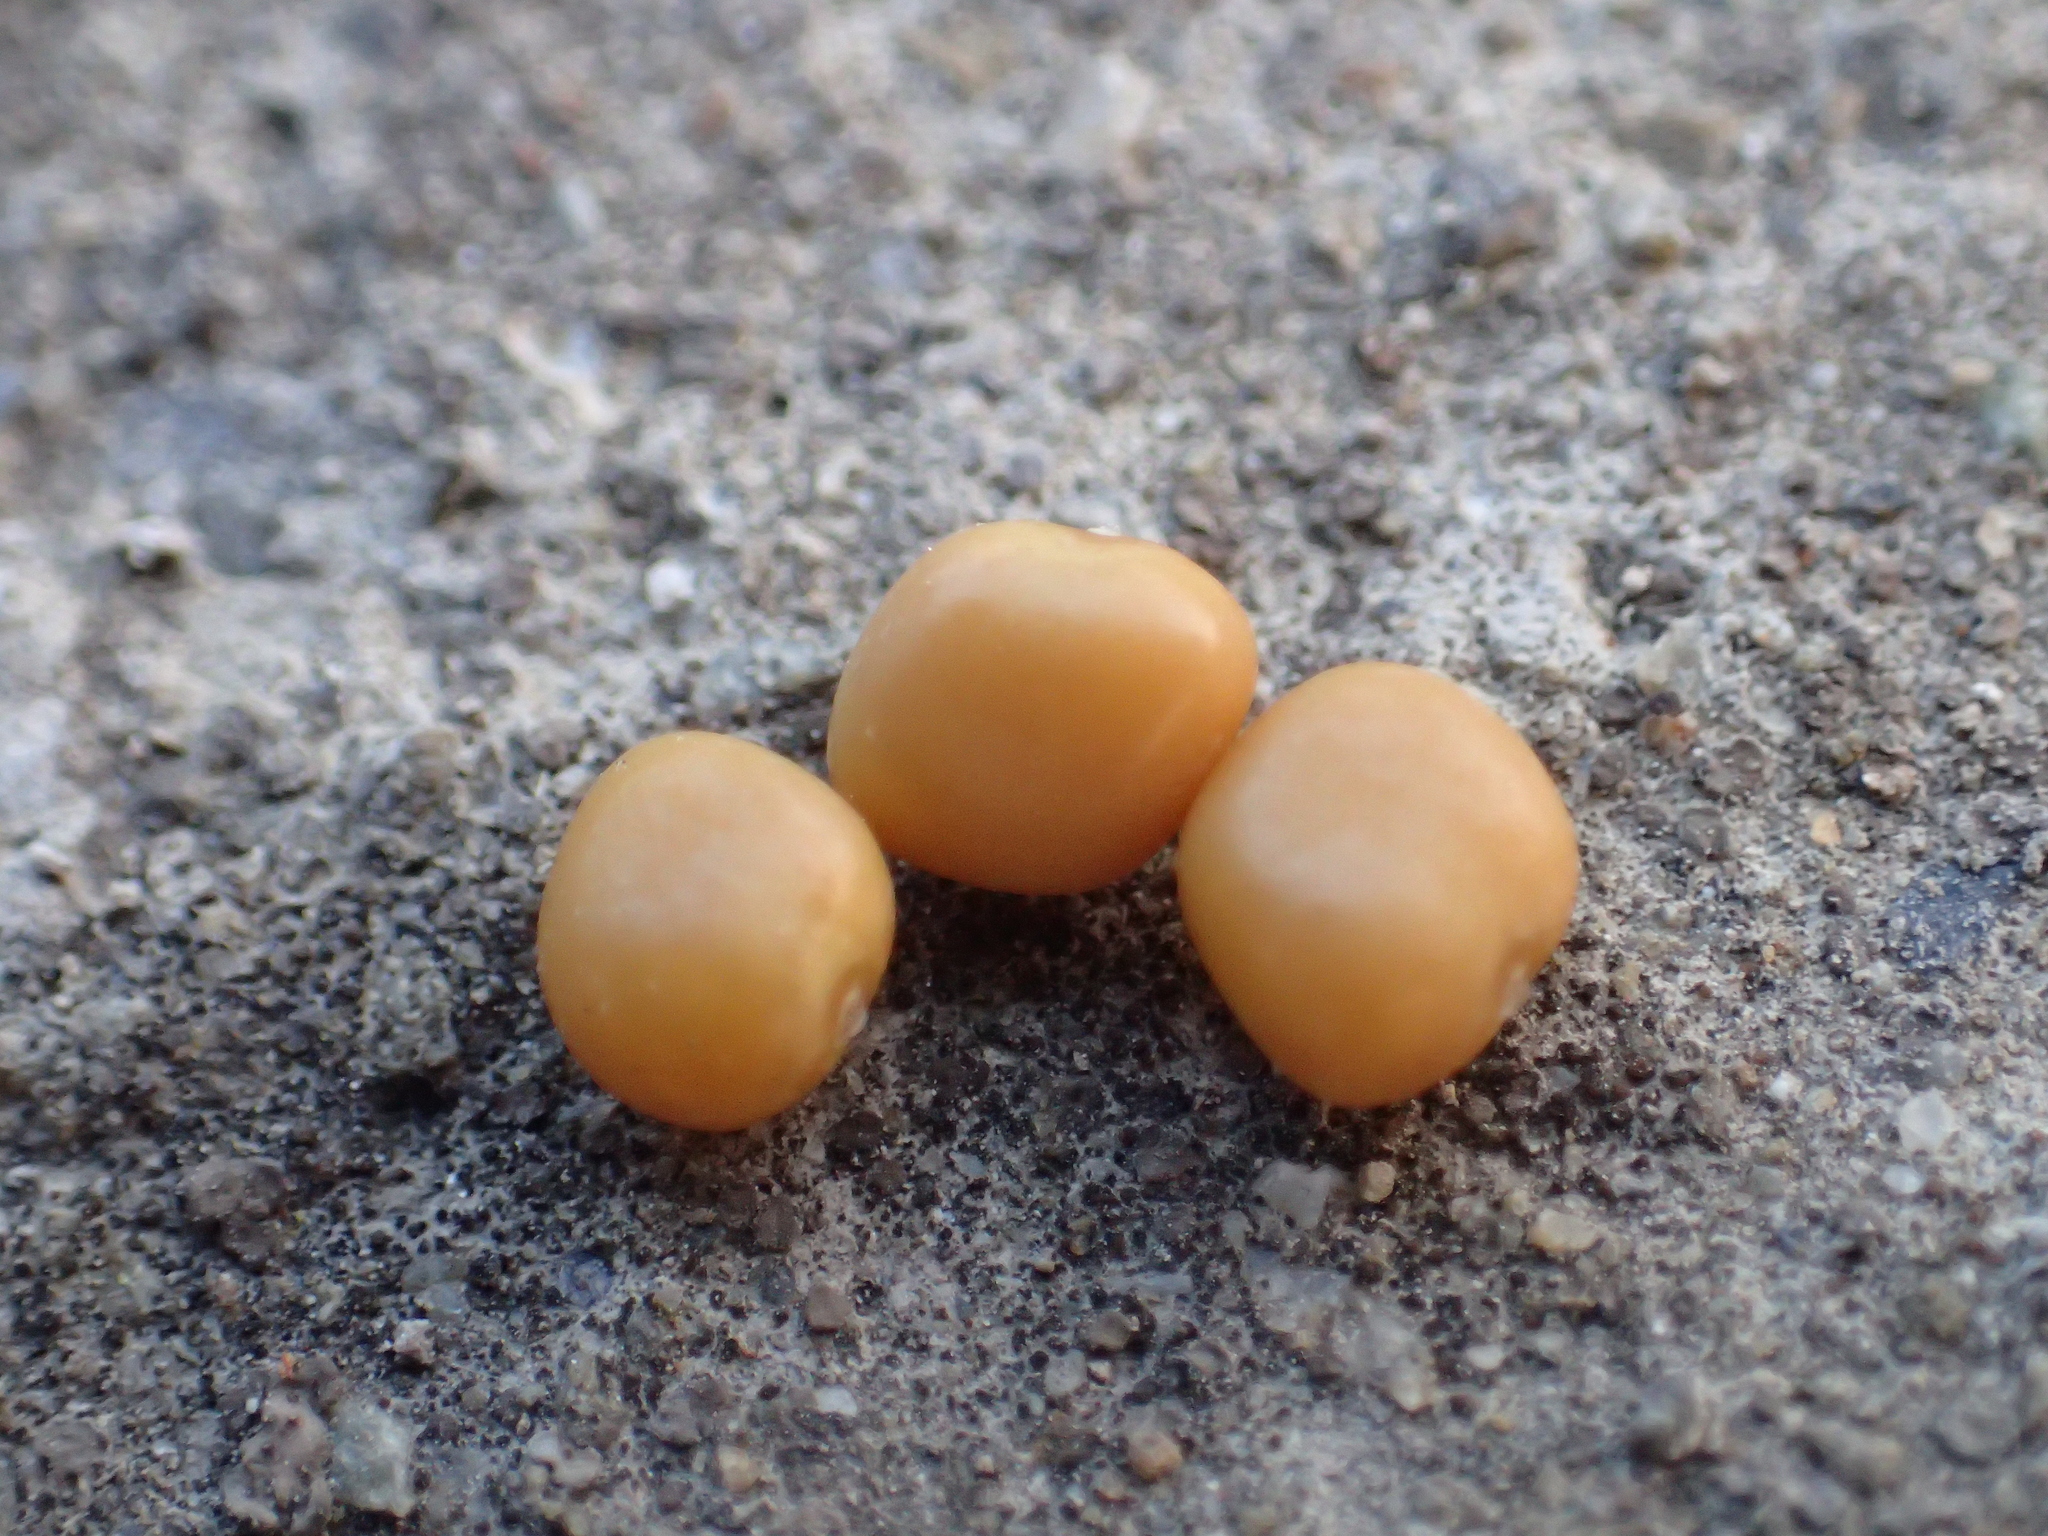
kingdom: Plantae
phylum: Tracheophyta
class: Magnoliopsida
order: Fabales
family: Fabaceae
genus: Calopogonium
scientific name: Calopogonium mucunoides
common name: Calopo
